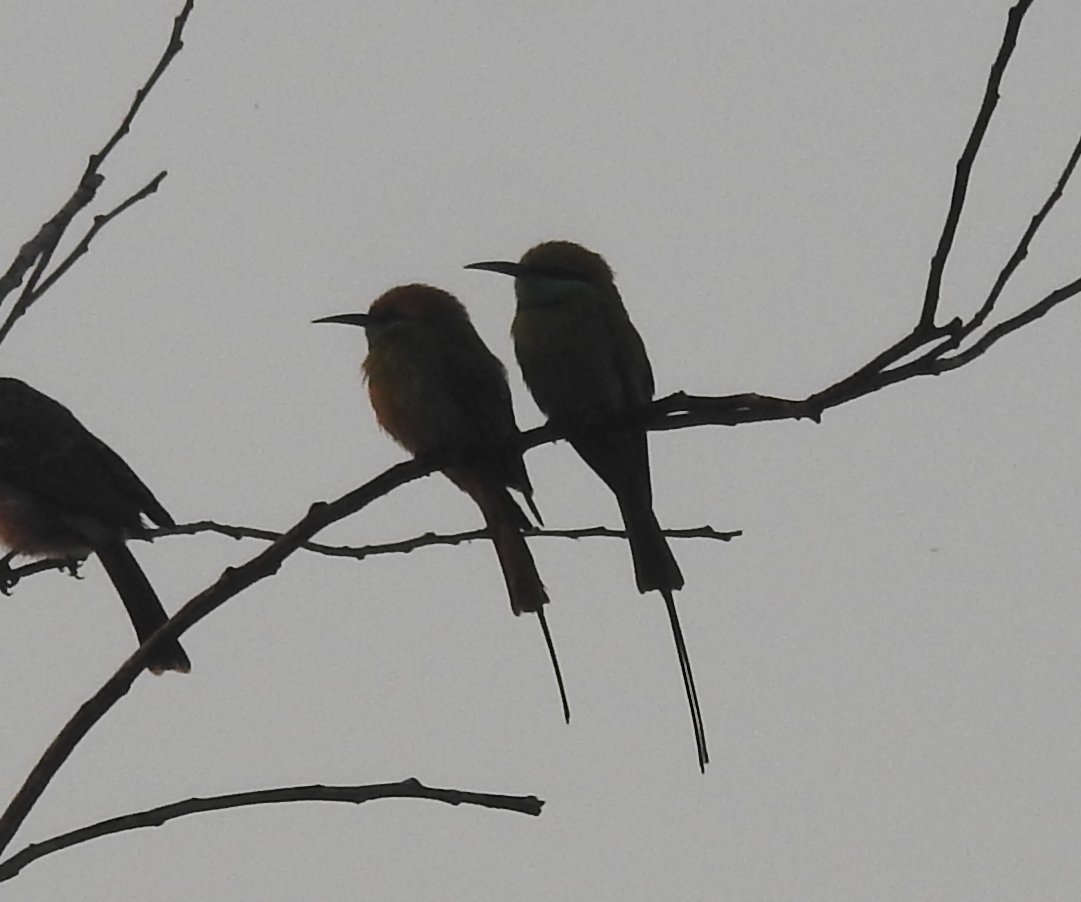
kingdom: Animalia
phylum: Chordata
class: Aves
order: Coraciiformes
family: Meropidae
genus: Merops
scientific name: Merops orientalis
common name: Green bee-eater
